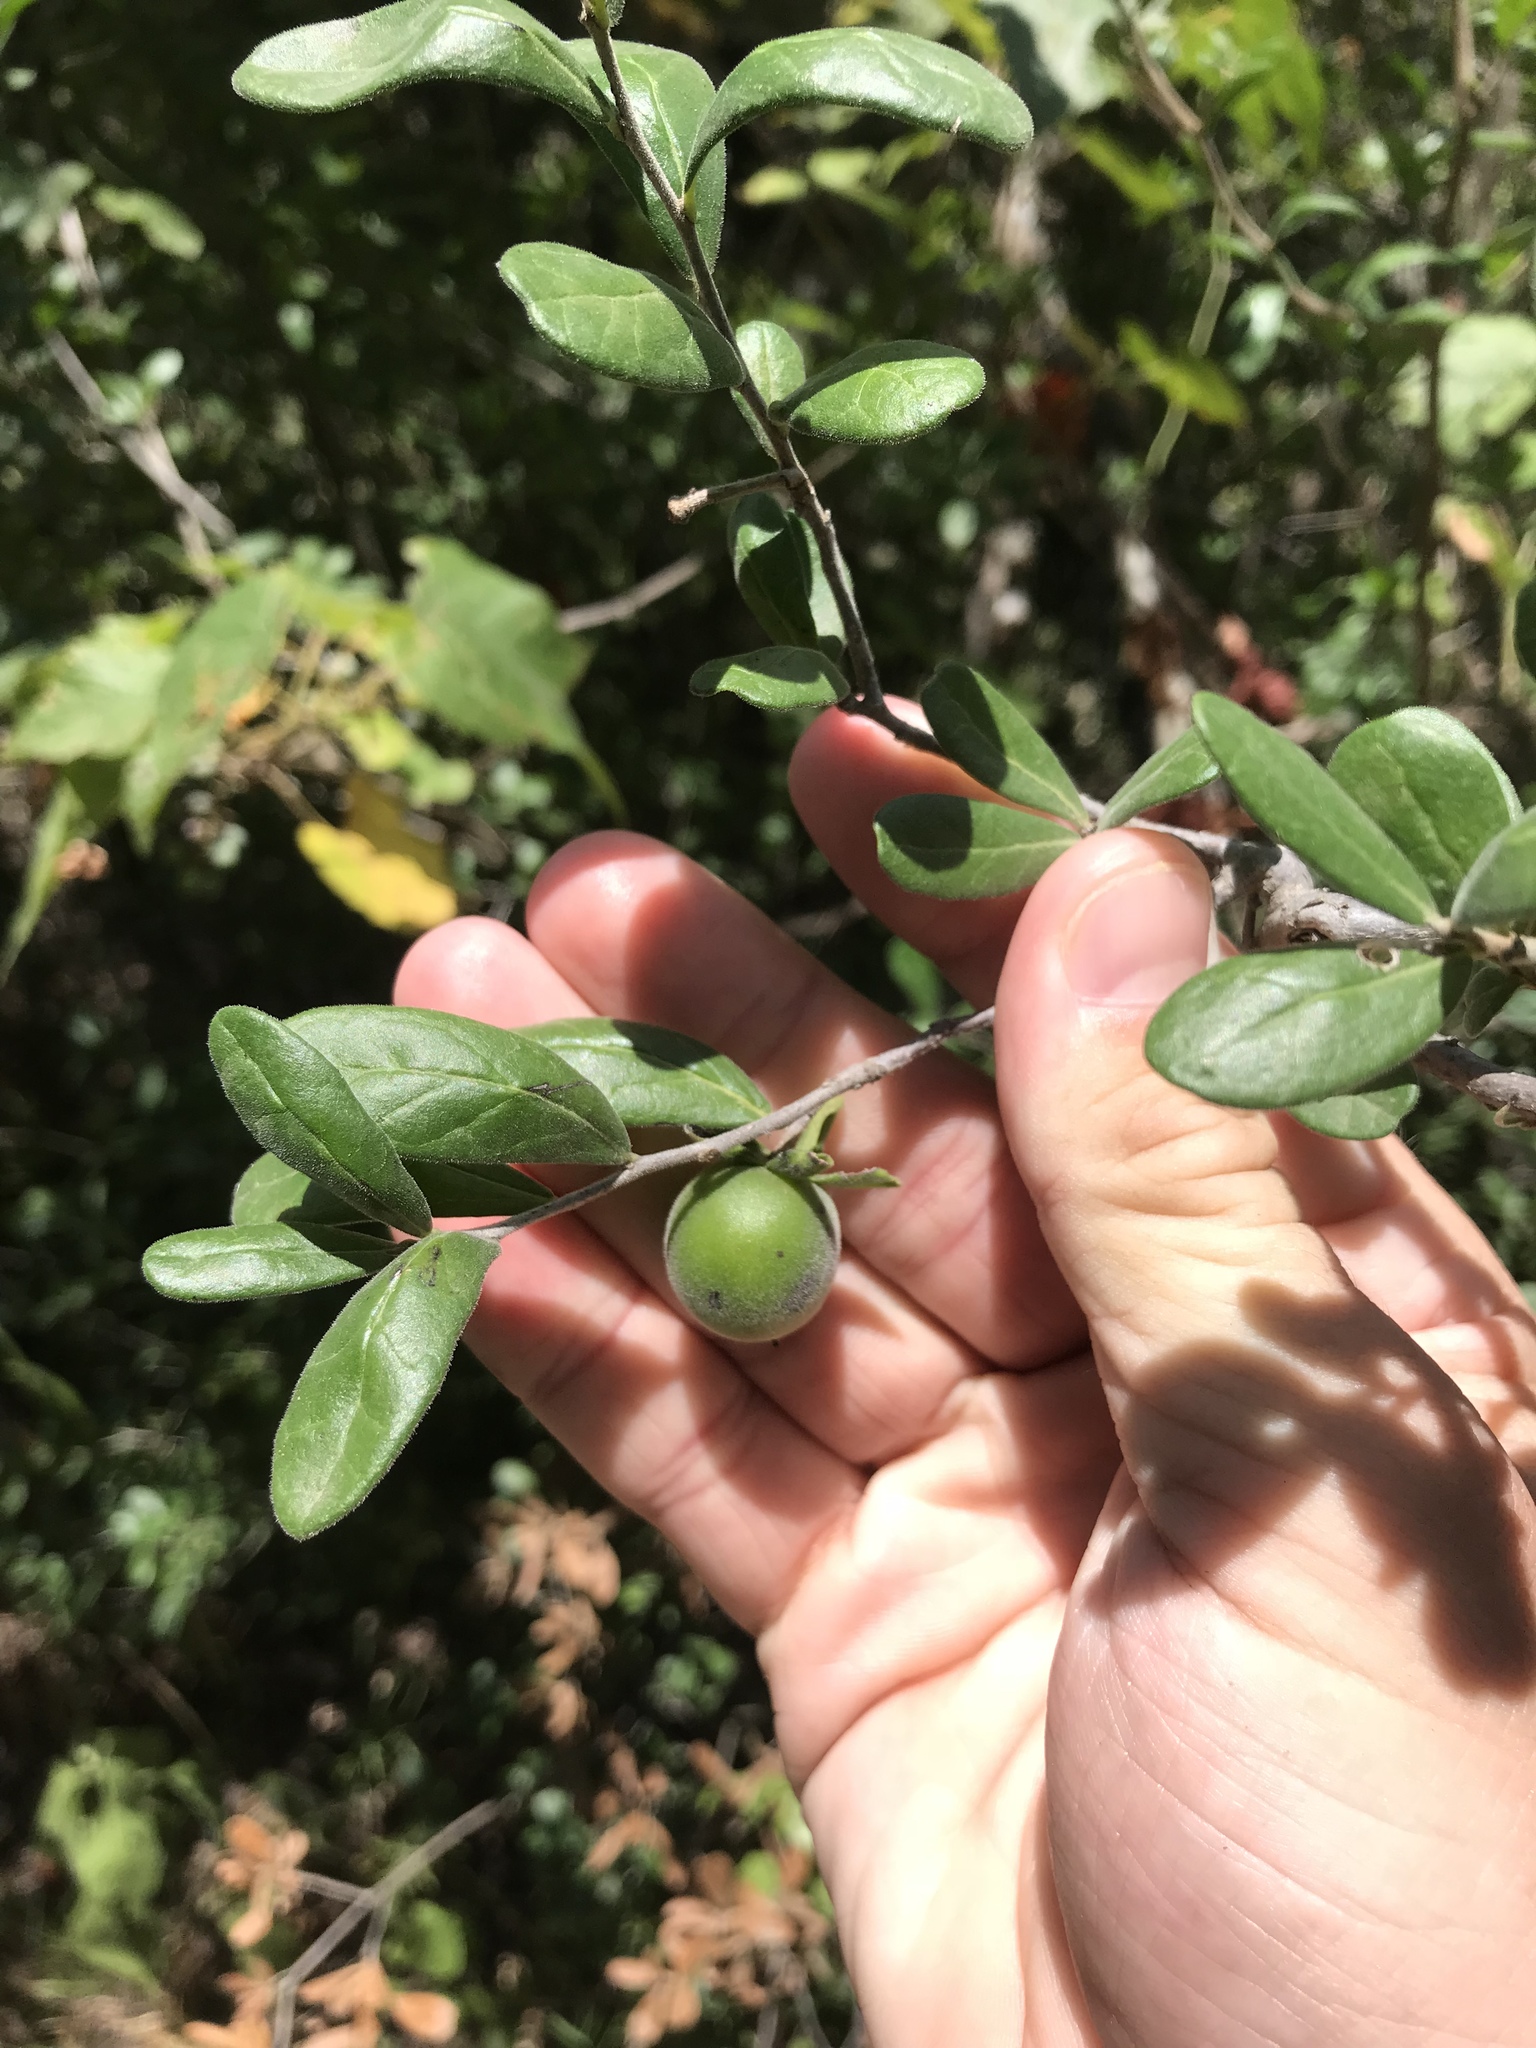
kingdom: Plantae
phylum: Tracheophyta
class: Magnoliopsida
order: Ericales
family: Ebenaceae
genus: Diospyros
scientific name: Diospyros texana
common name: Texas persimmon
